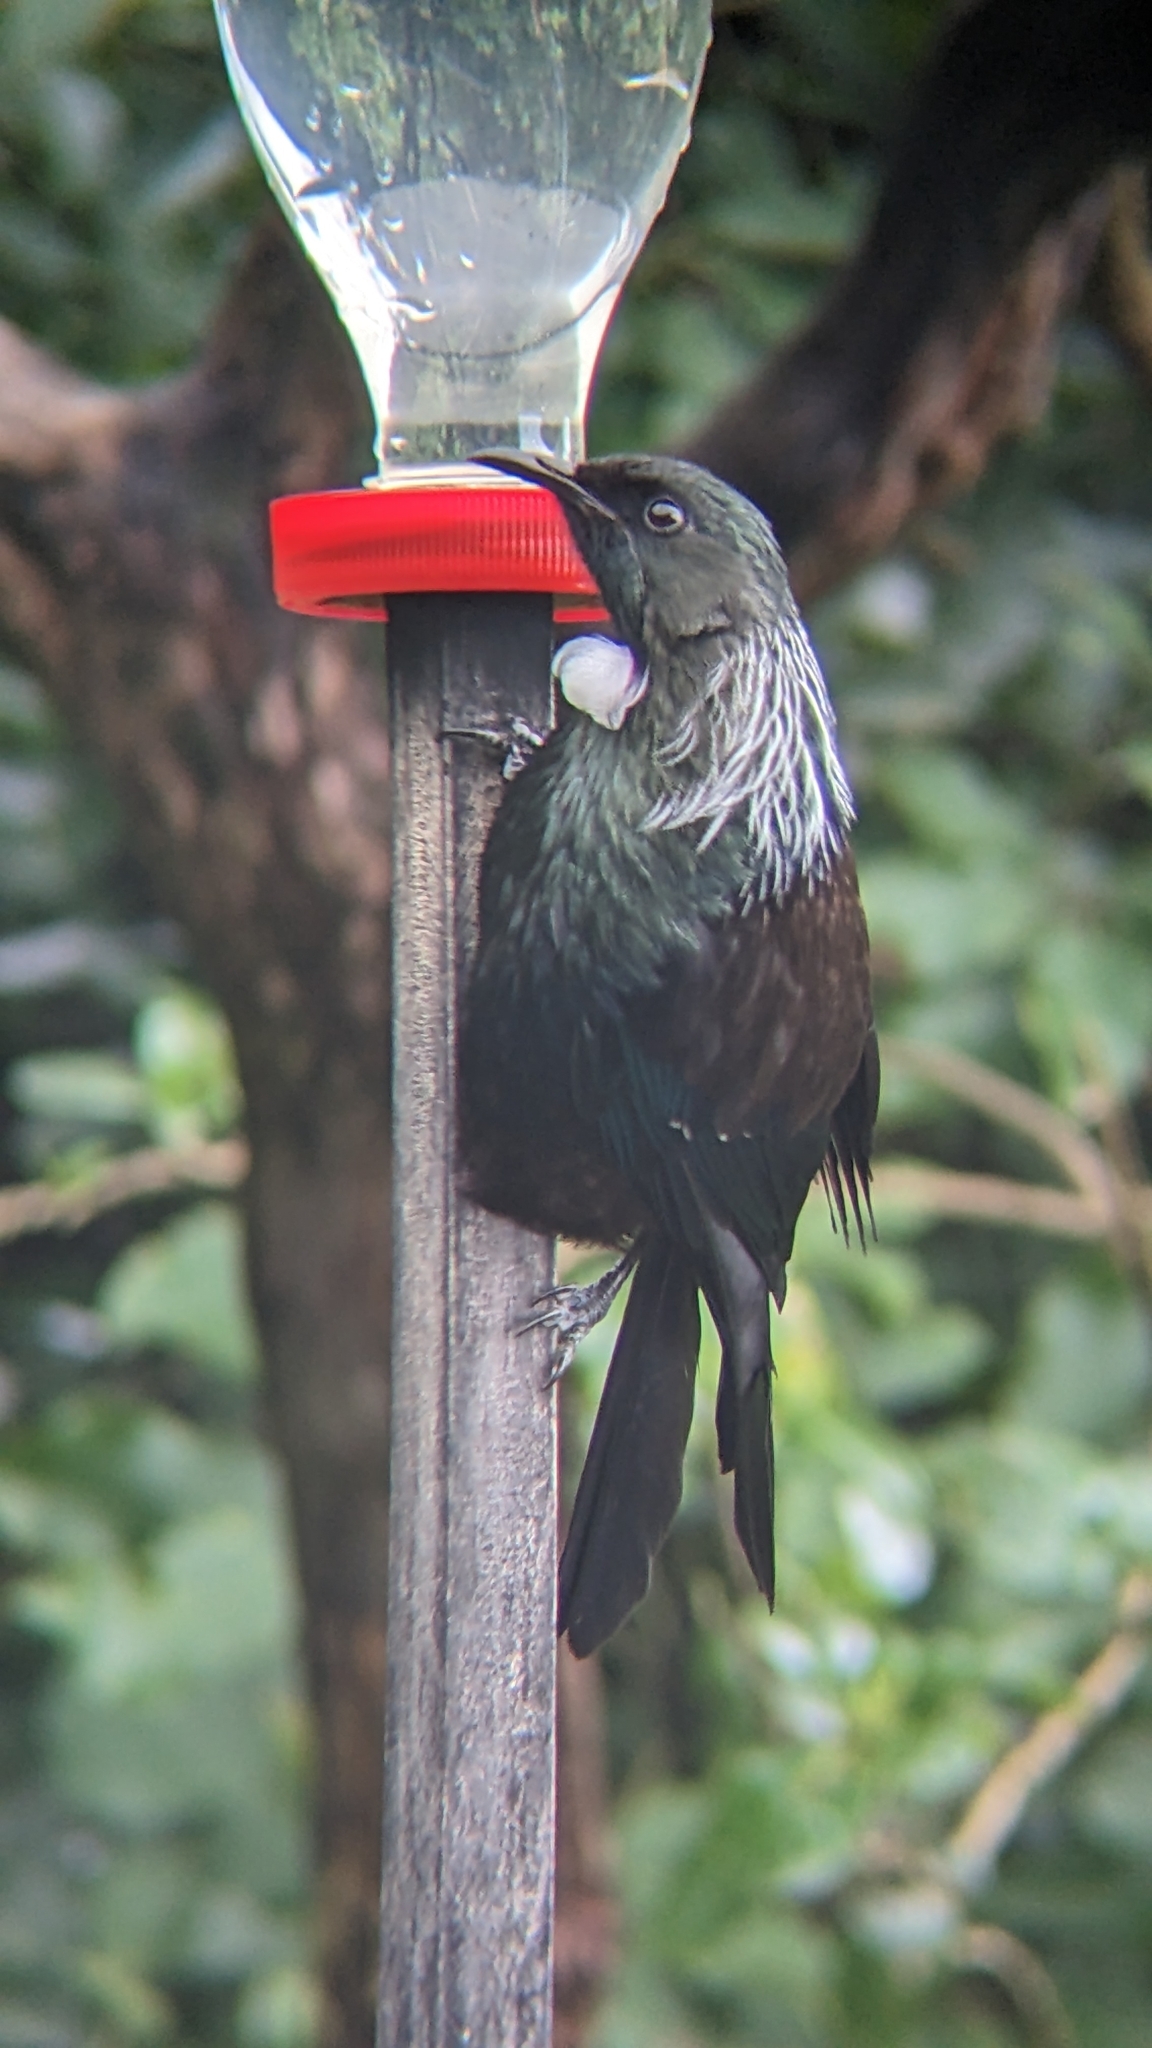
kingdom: Animalia
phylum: Chordata
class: Aves
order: Passeriformes
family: Meliphagidae
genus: Prosthemadera
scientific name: Prosthemadera novaeseelandiae
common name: Tui
